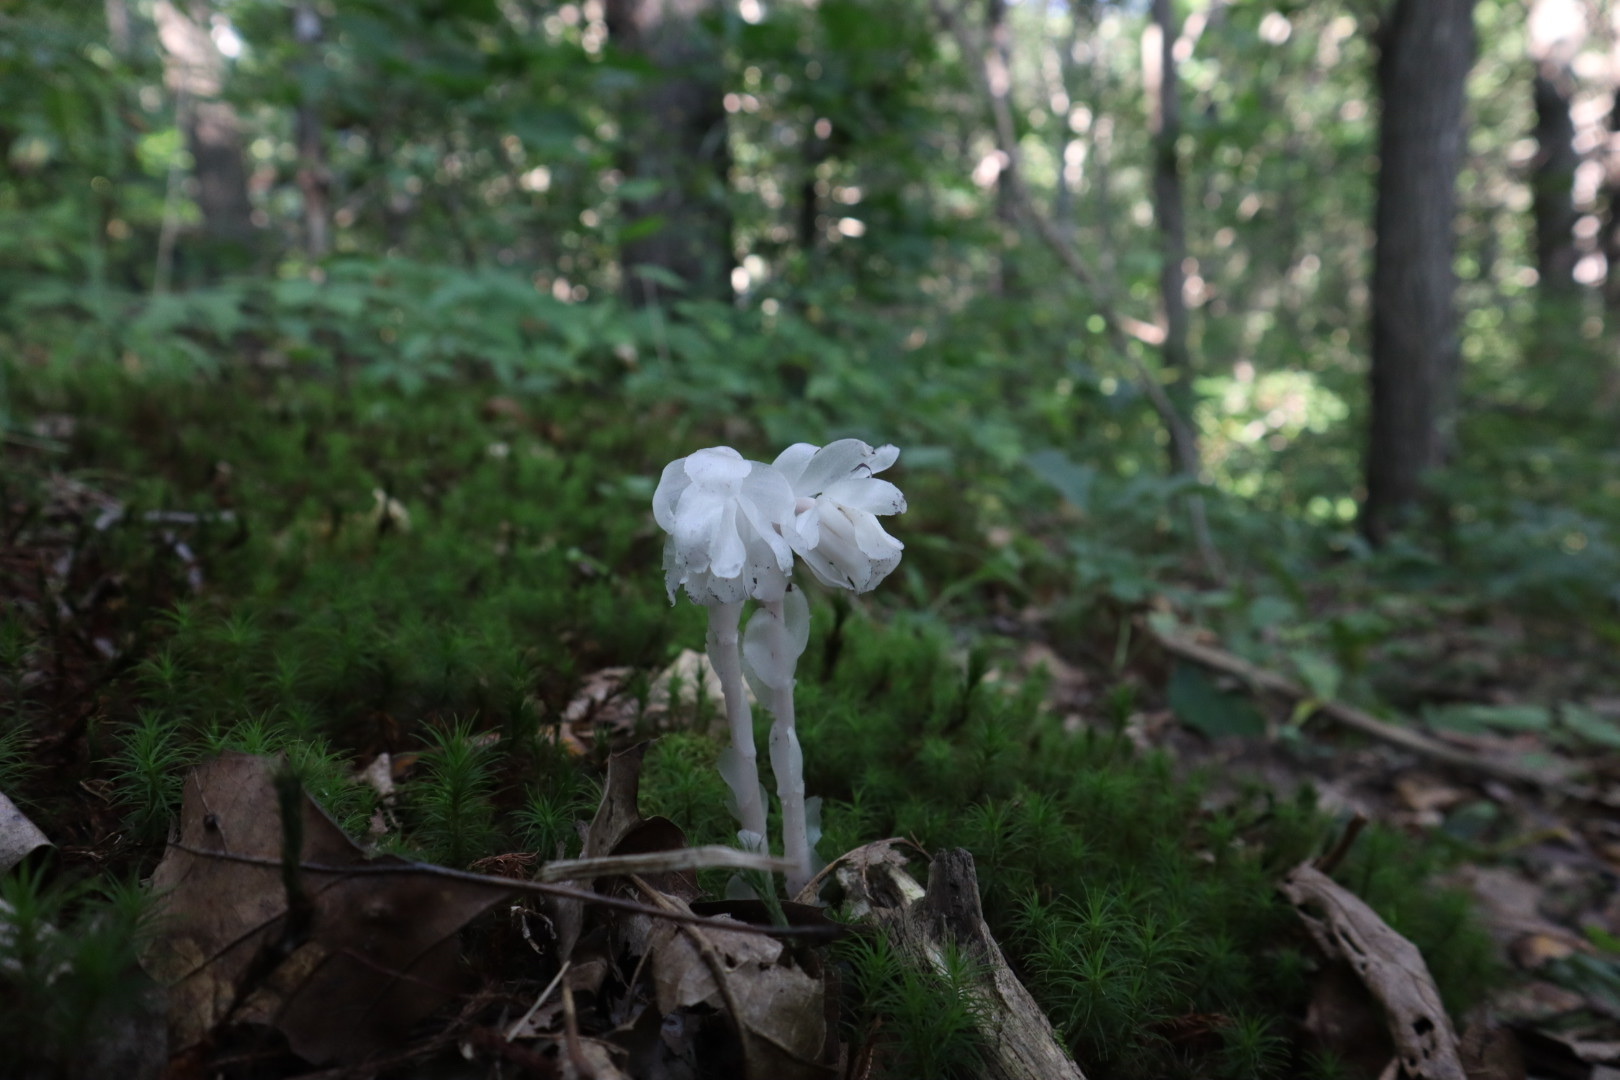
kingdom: Plantae
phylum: Tracheophyta
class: Magnoliopsida
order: Ericales
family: Ericaceae
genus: Monotropa
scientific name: Monotropa uniflora
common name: Convulsion root
